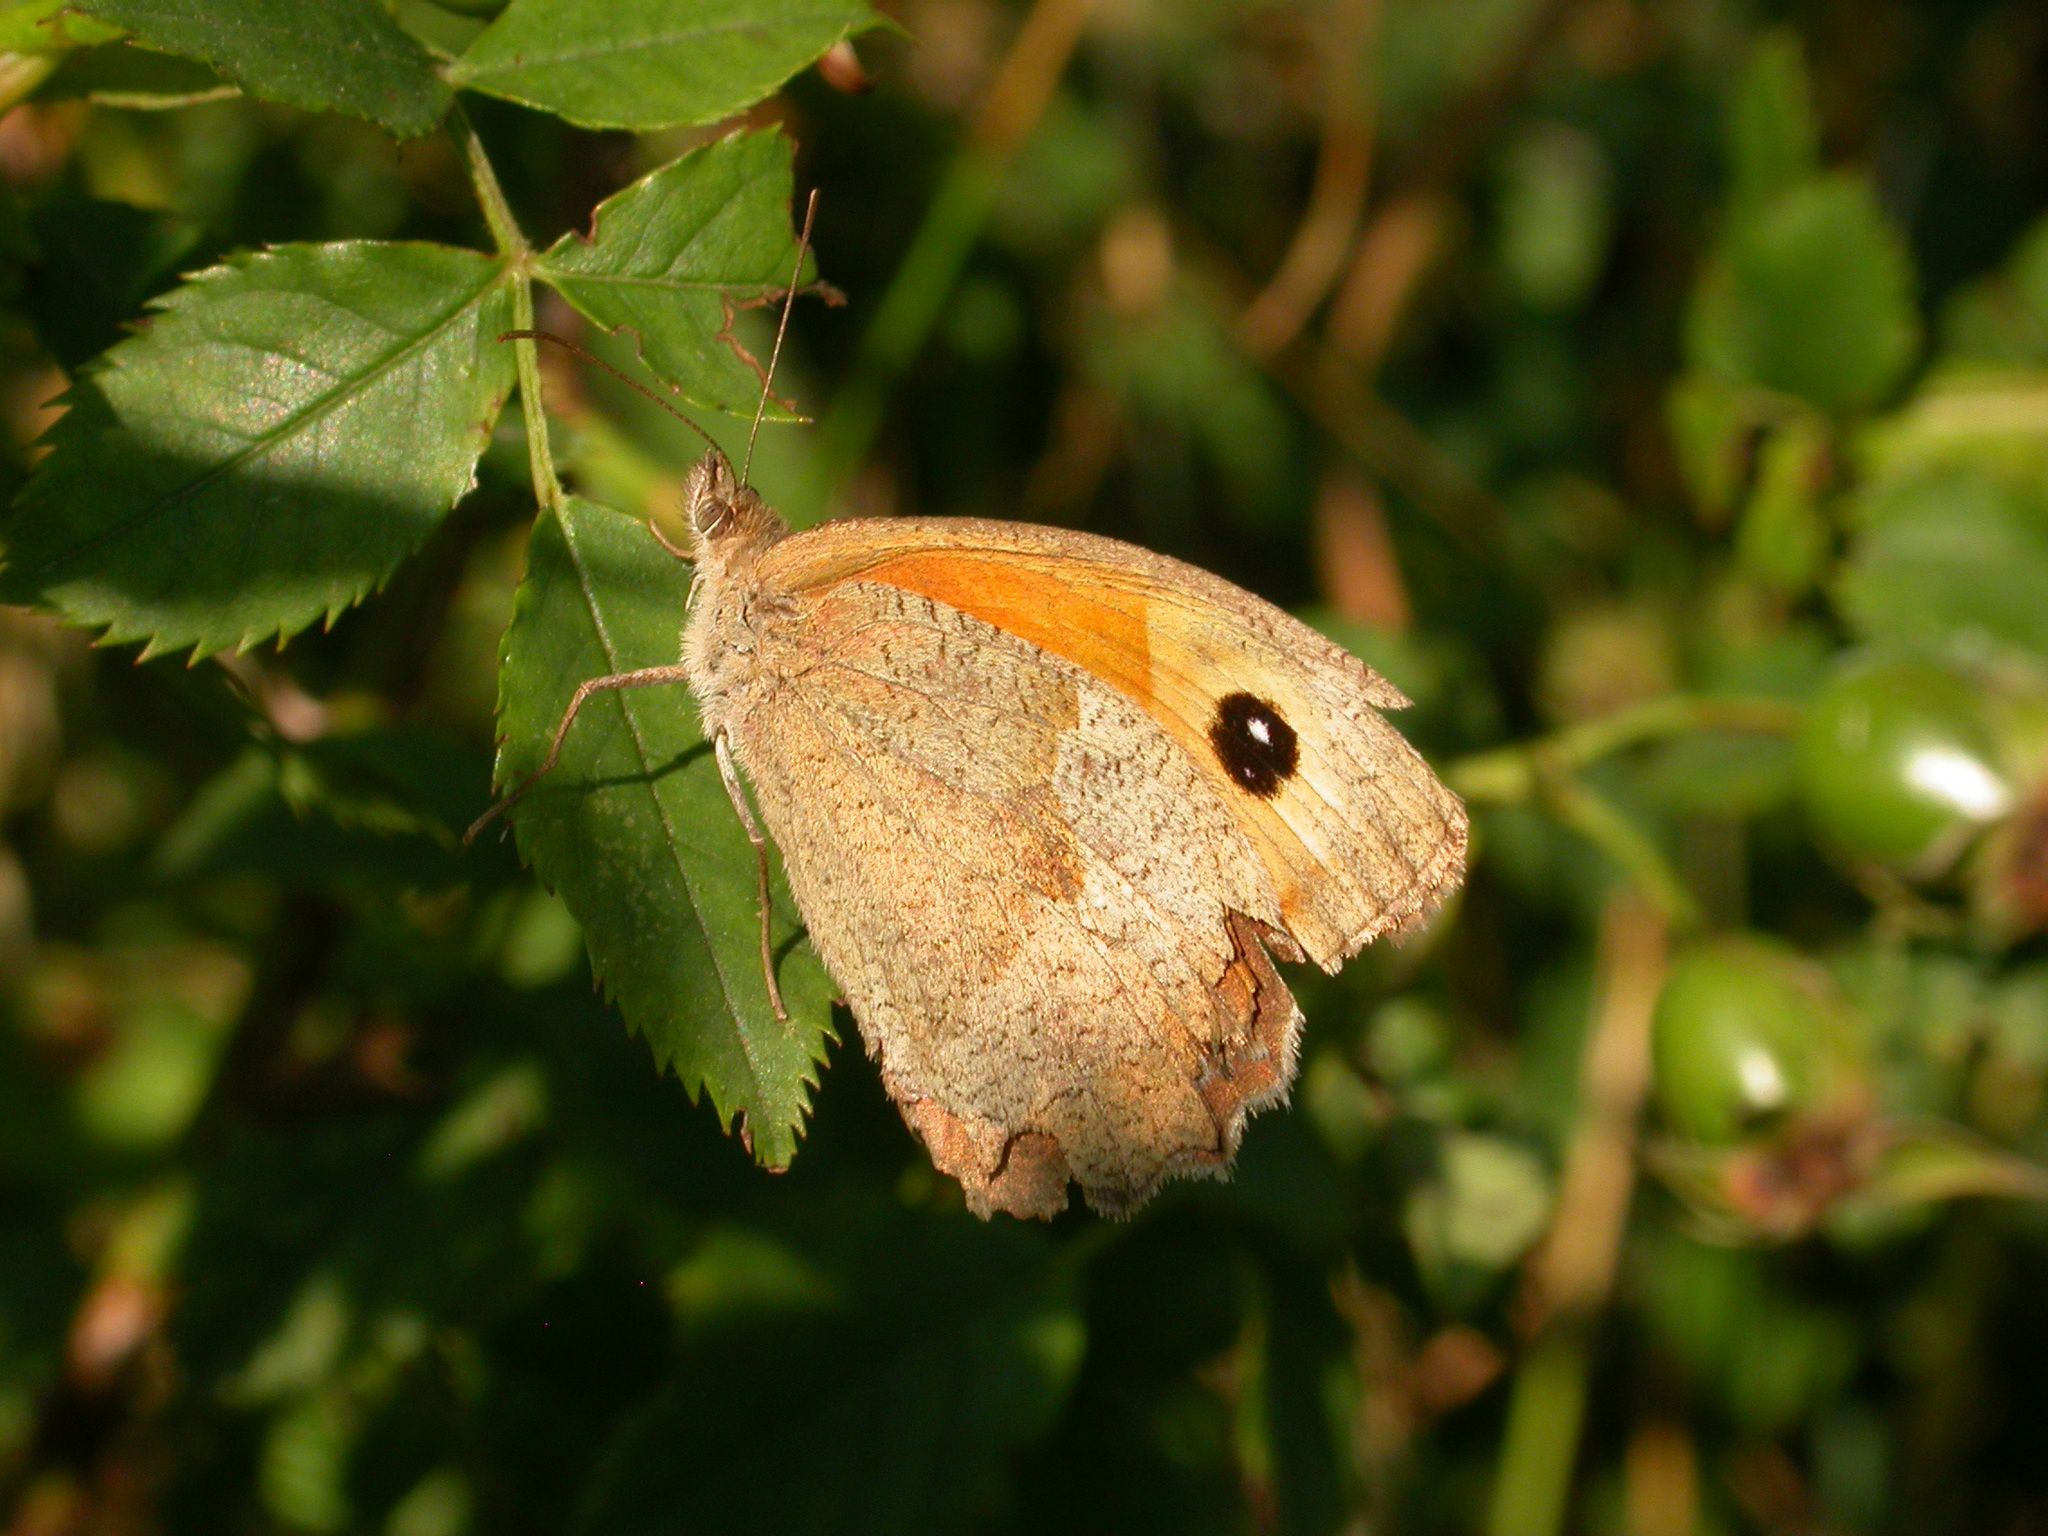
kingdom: Animalia
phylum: Arthropoda
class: Insecta
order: Lepidoptera
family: Nymphalidae
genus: Maniola
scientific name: Maniola jurtina
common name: Meadow brown
